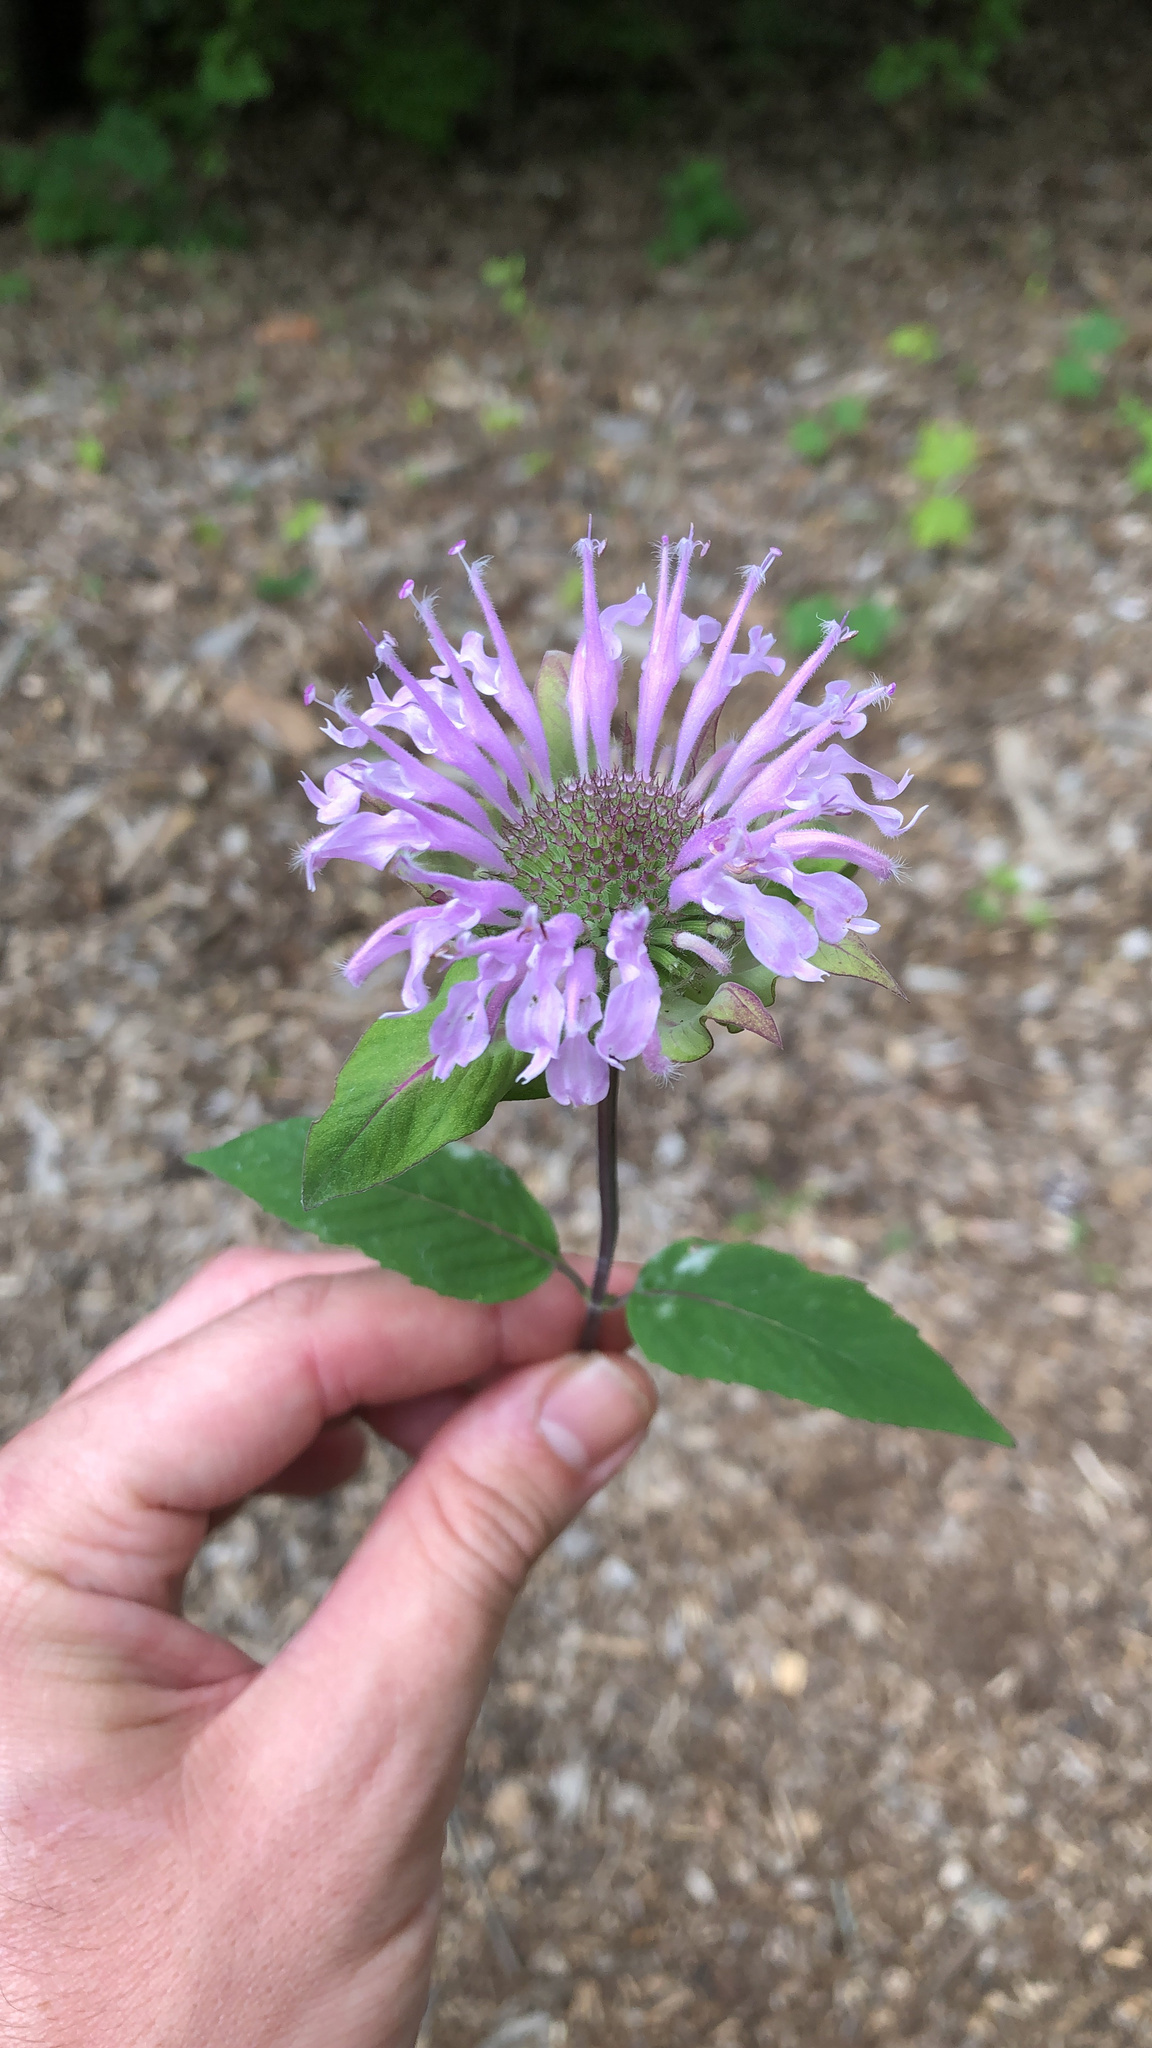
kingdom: Plantae
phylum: Tracheophyta
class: Magnoliopsida
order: Lamiales
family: Lamiaceae
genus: Monarda
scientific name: Monarda fistulosa
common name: Purple beebalm
